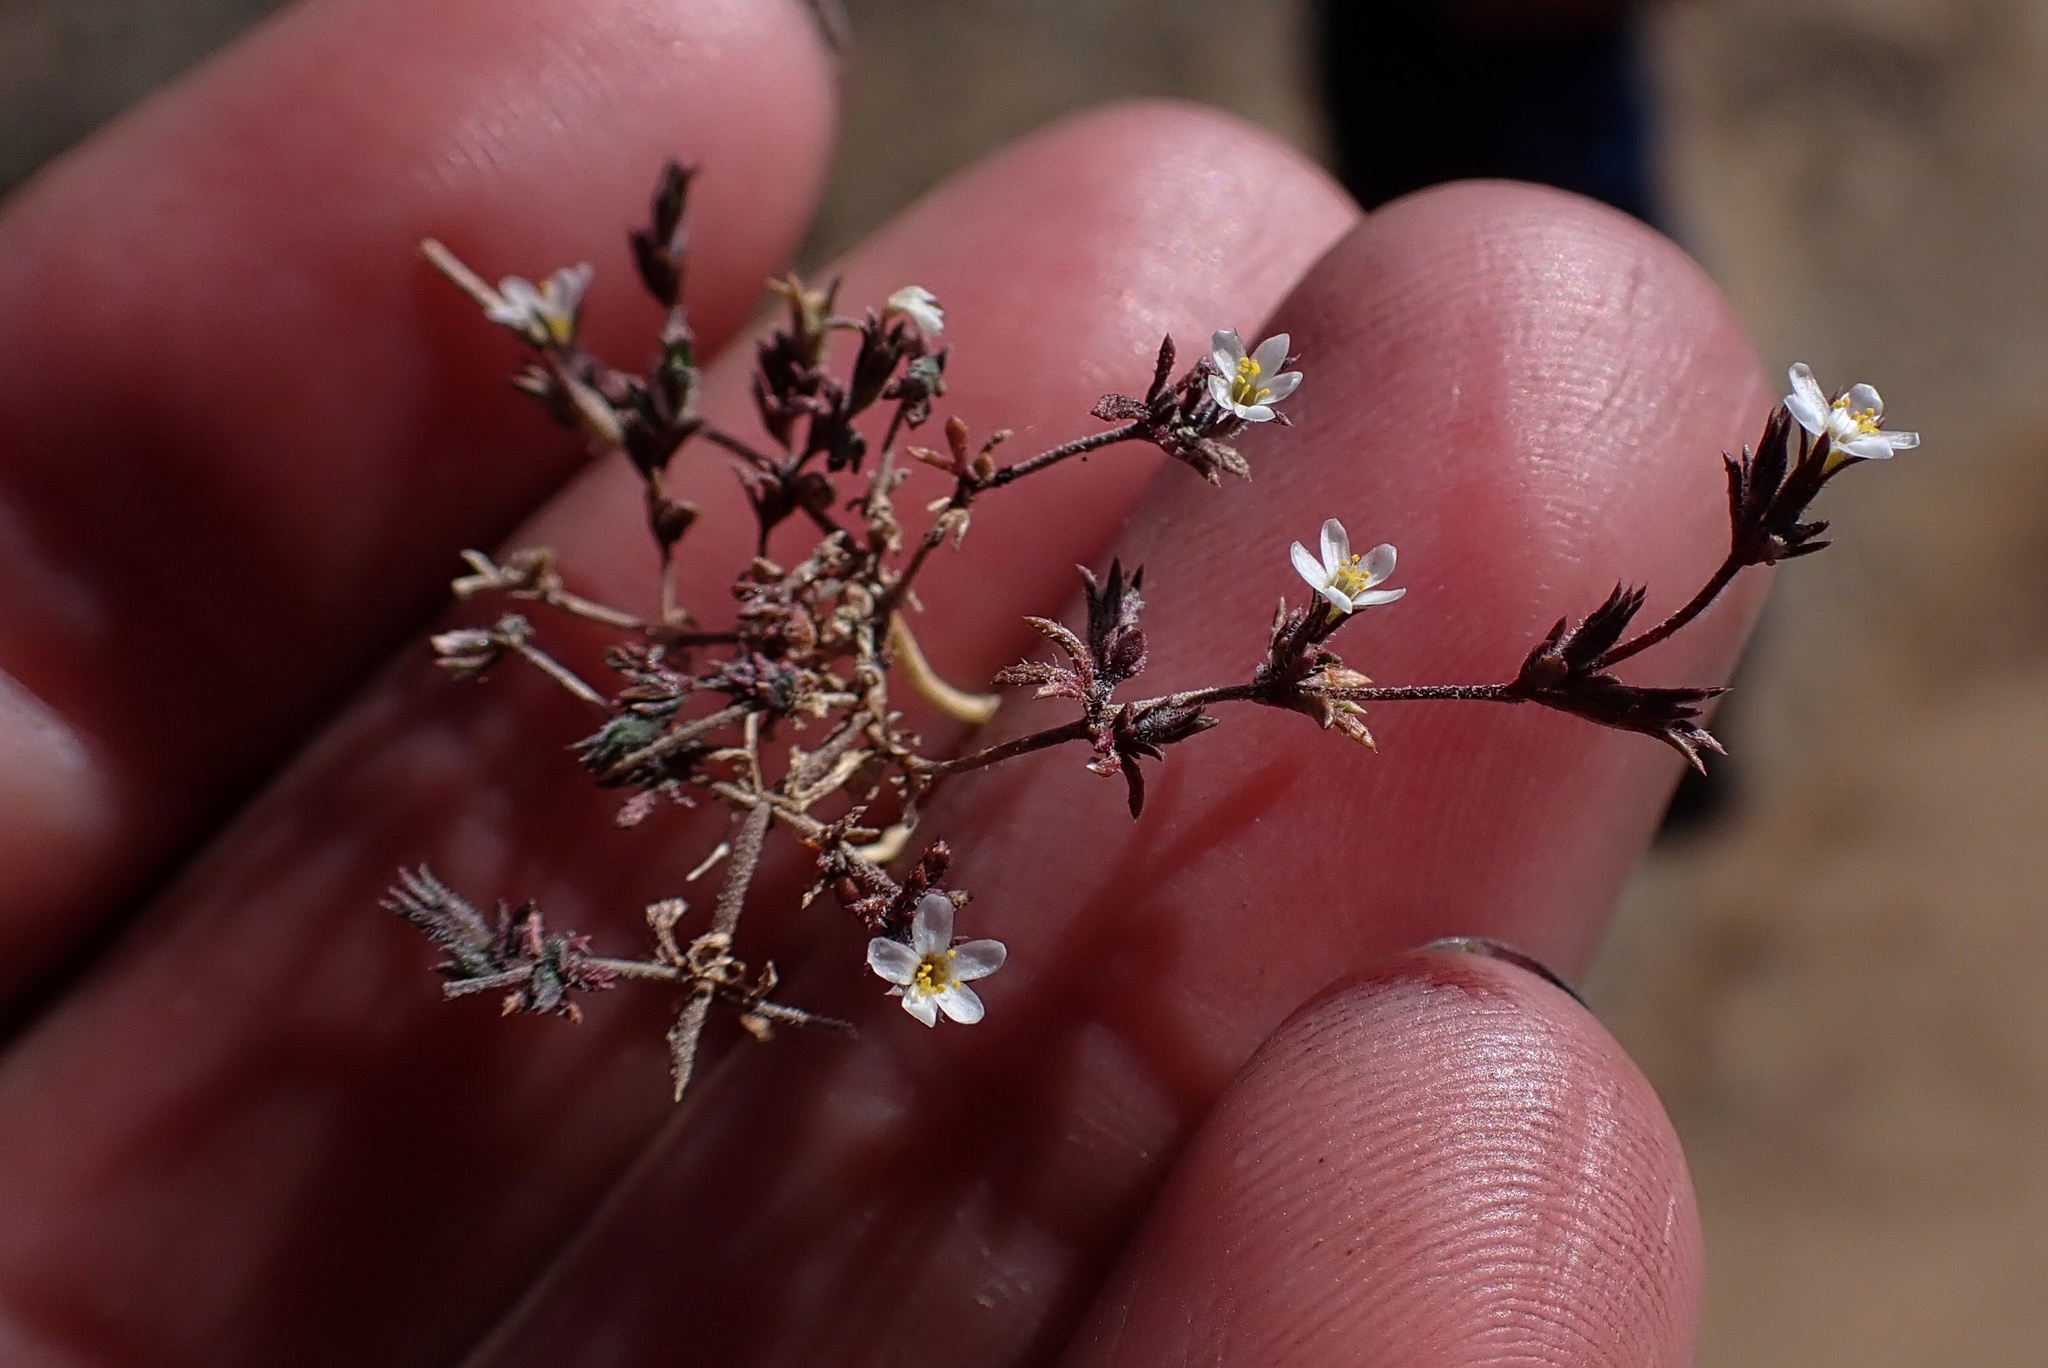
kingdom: Plantae
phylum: Tracheophyta
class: Magnoliopsida
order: Ericales
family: Polemoniaceae
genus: Leptosiphon
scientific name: Leptosiphon pygmaeus
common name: Pygmy linanthus
